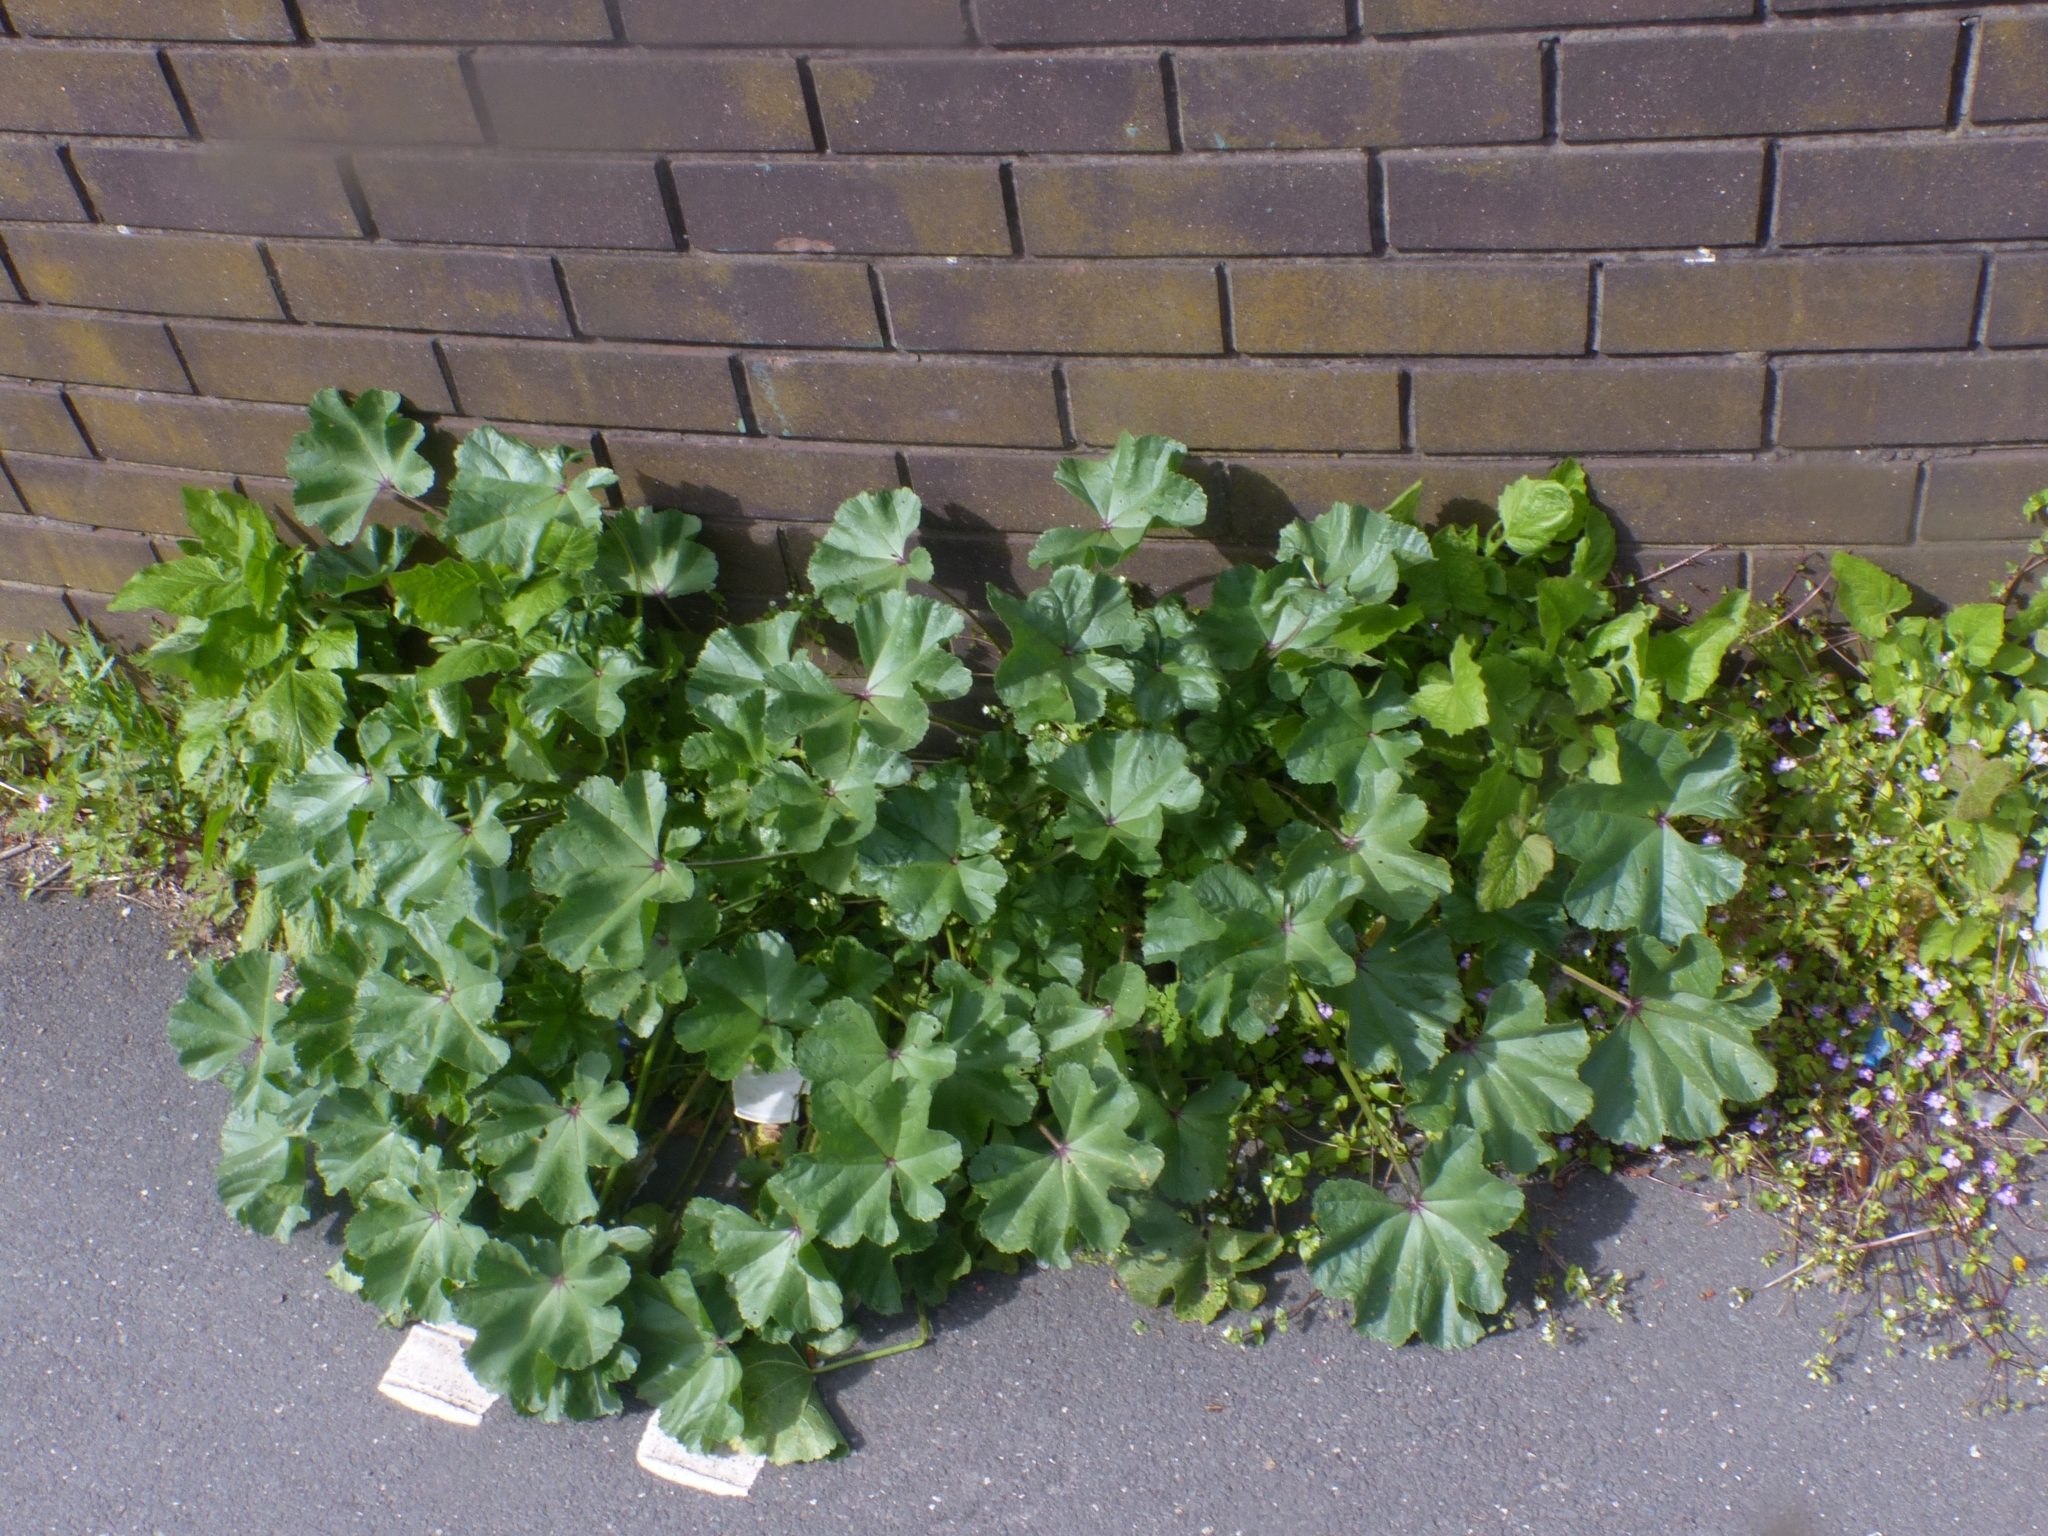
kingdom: Plantae
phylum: Tracheophyta
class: Magnoliopsida
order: Malvales
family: Malvaceae
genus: Malva
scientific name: Malva sylvestris
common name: Common mallow
